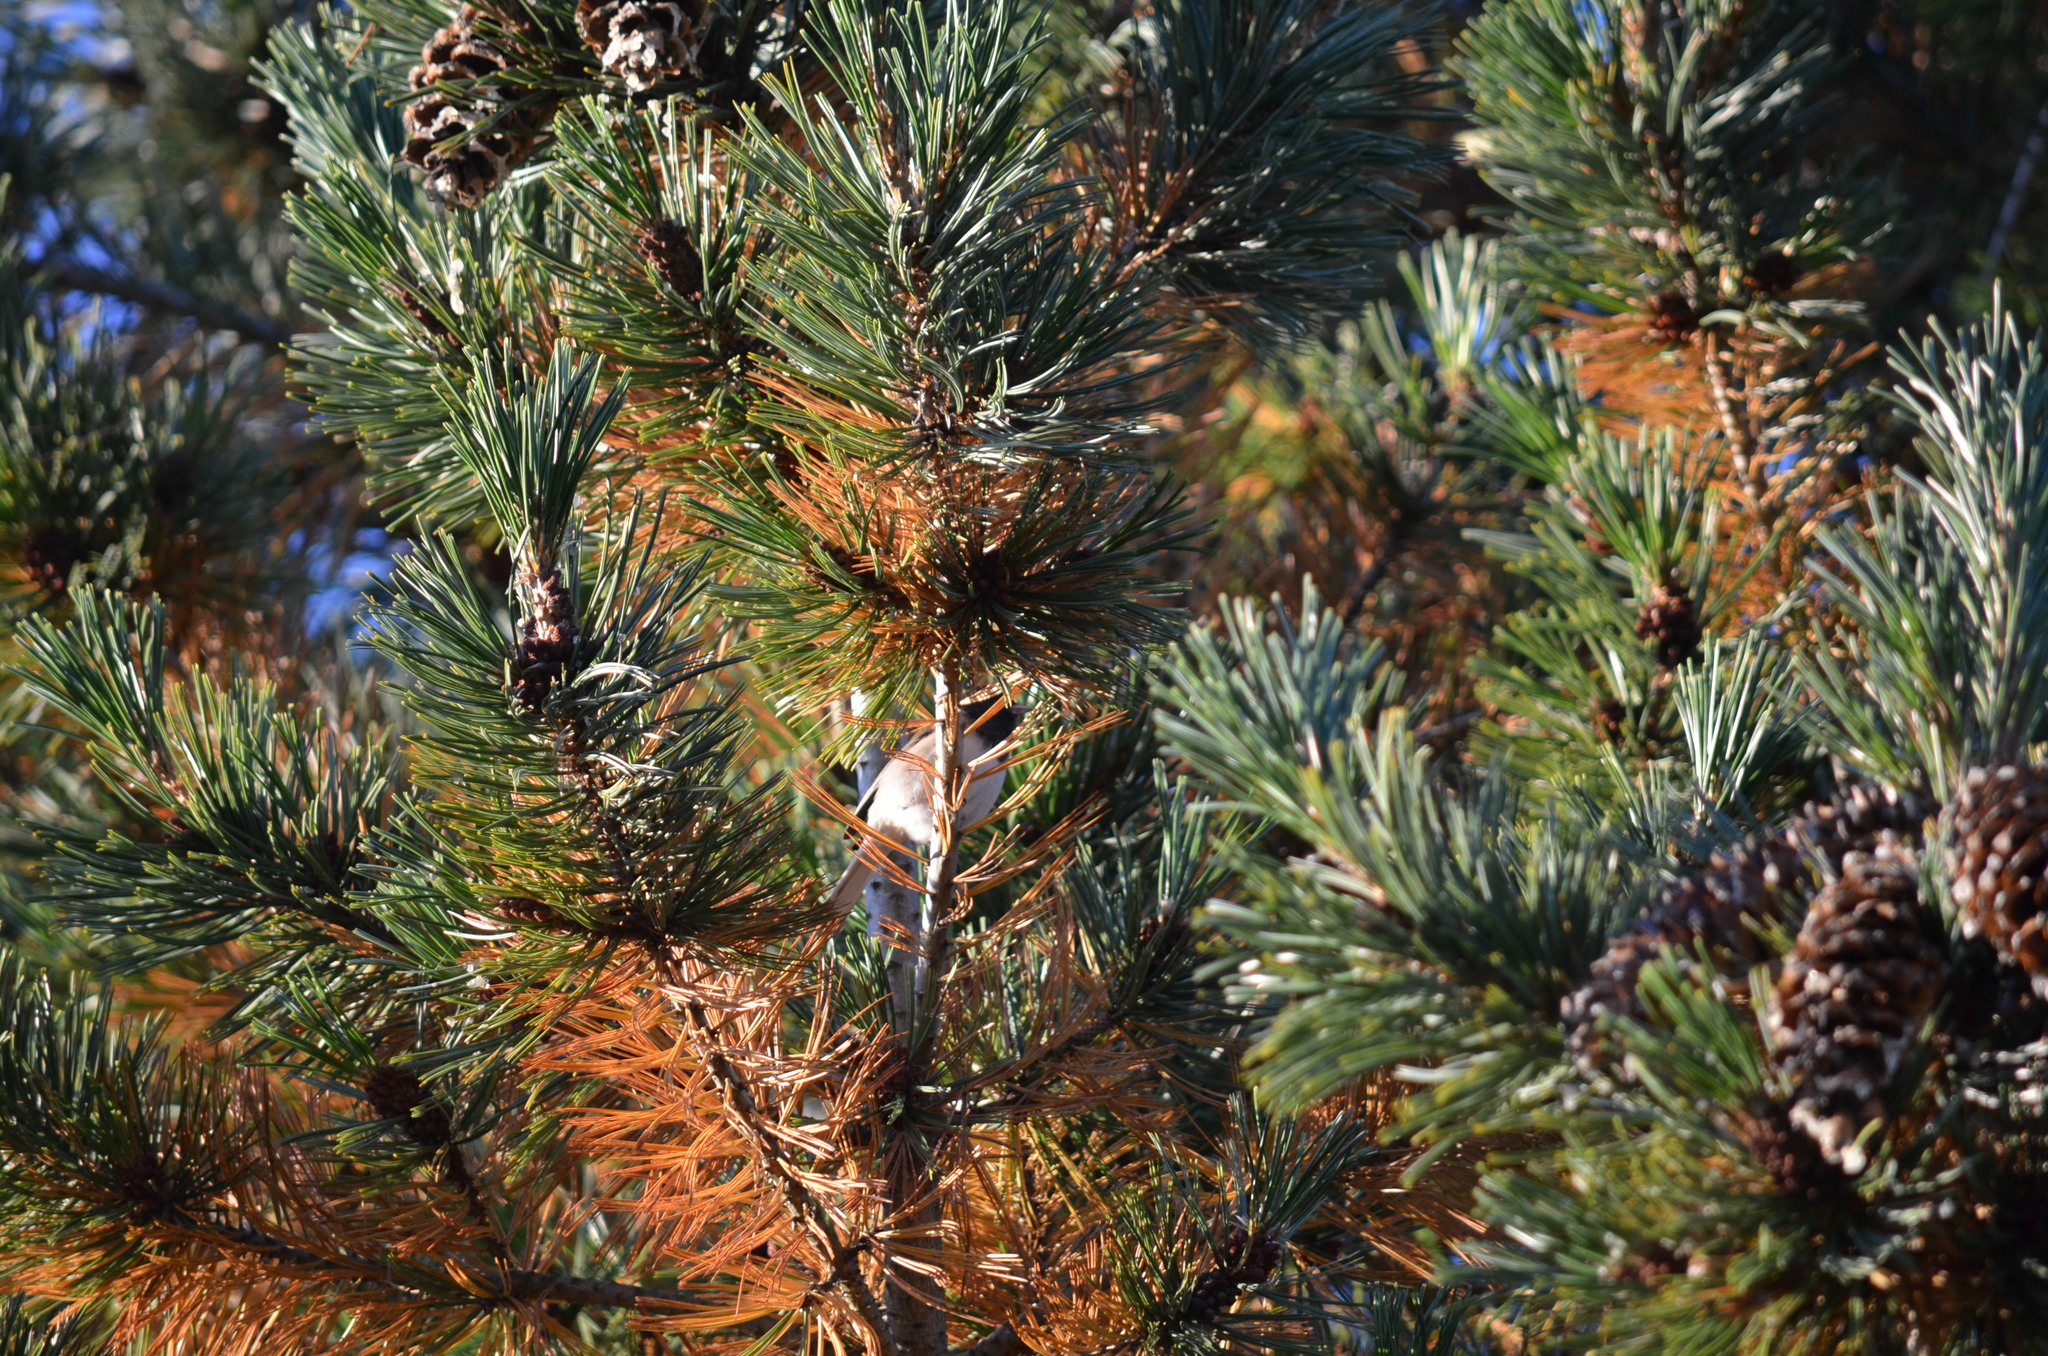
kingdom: Animalia
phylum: Chordata
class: Aves
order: Passeriformes
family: Passerellidae
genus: Junco
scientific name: Junco hyemalis
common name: Dark-eyed junco
